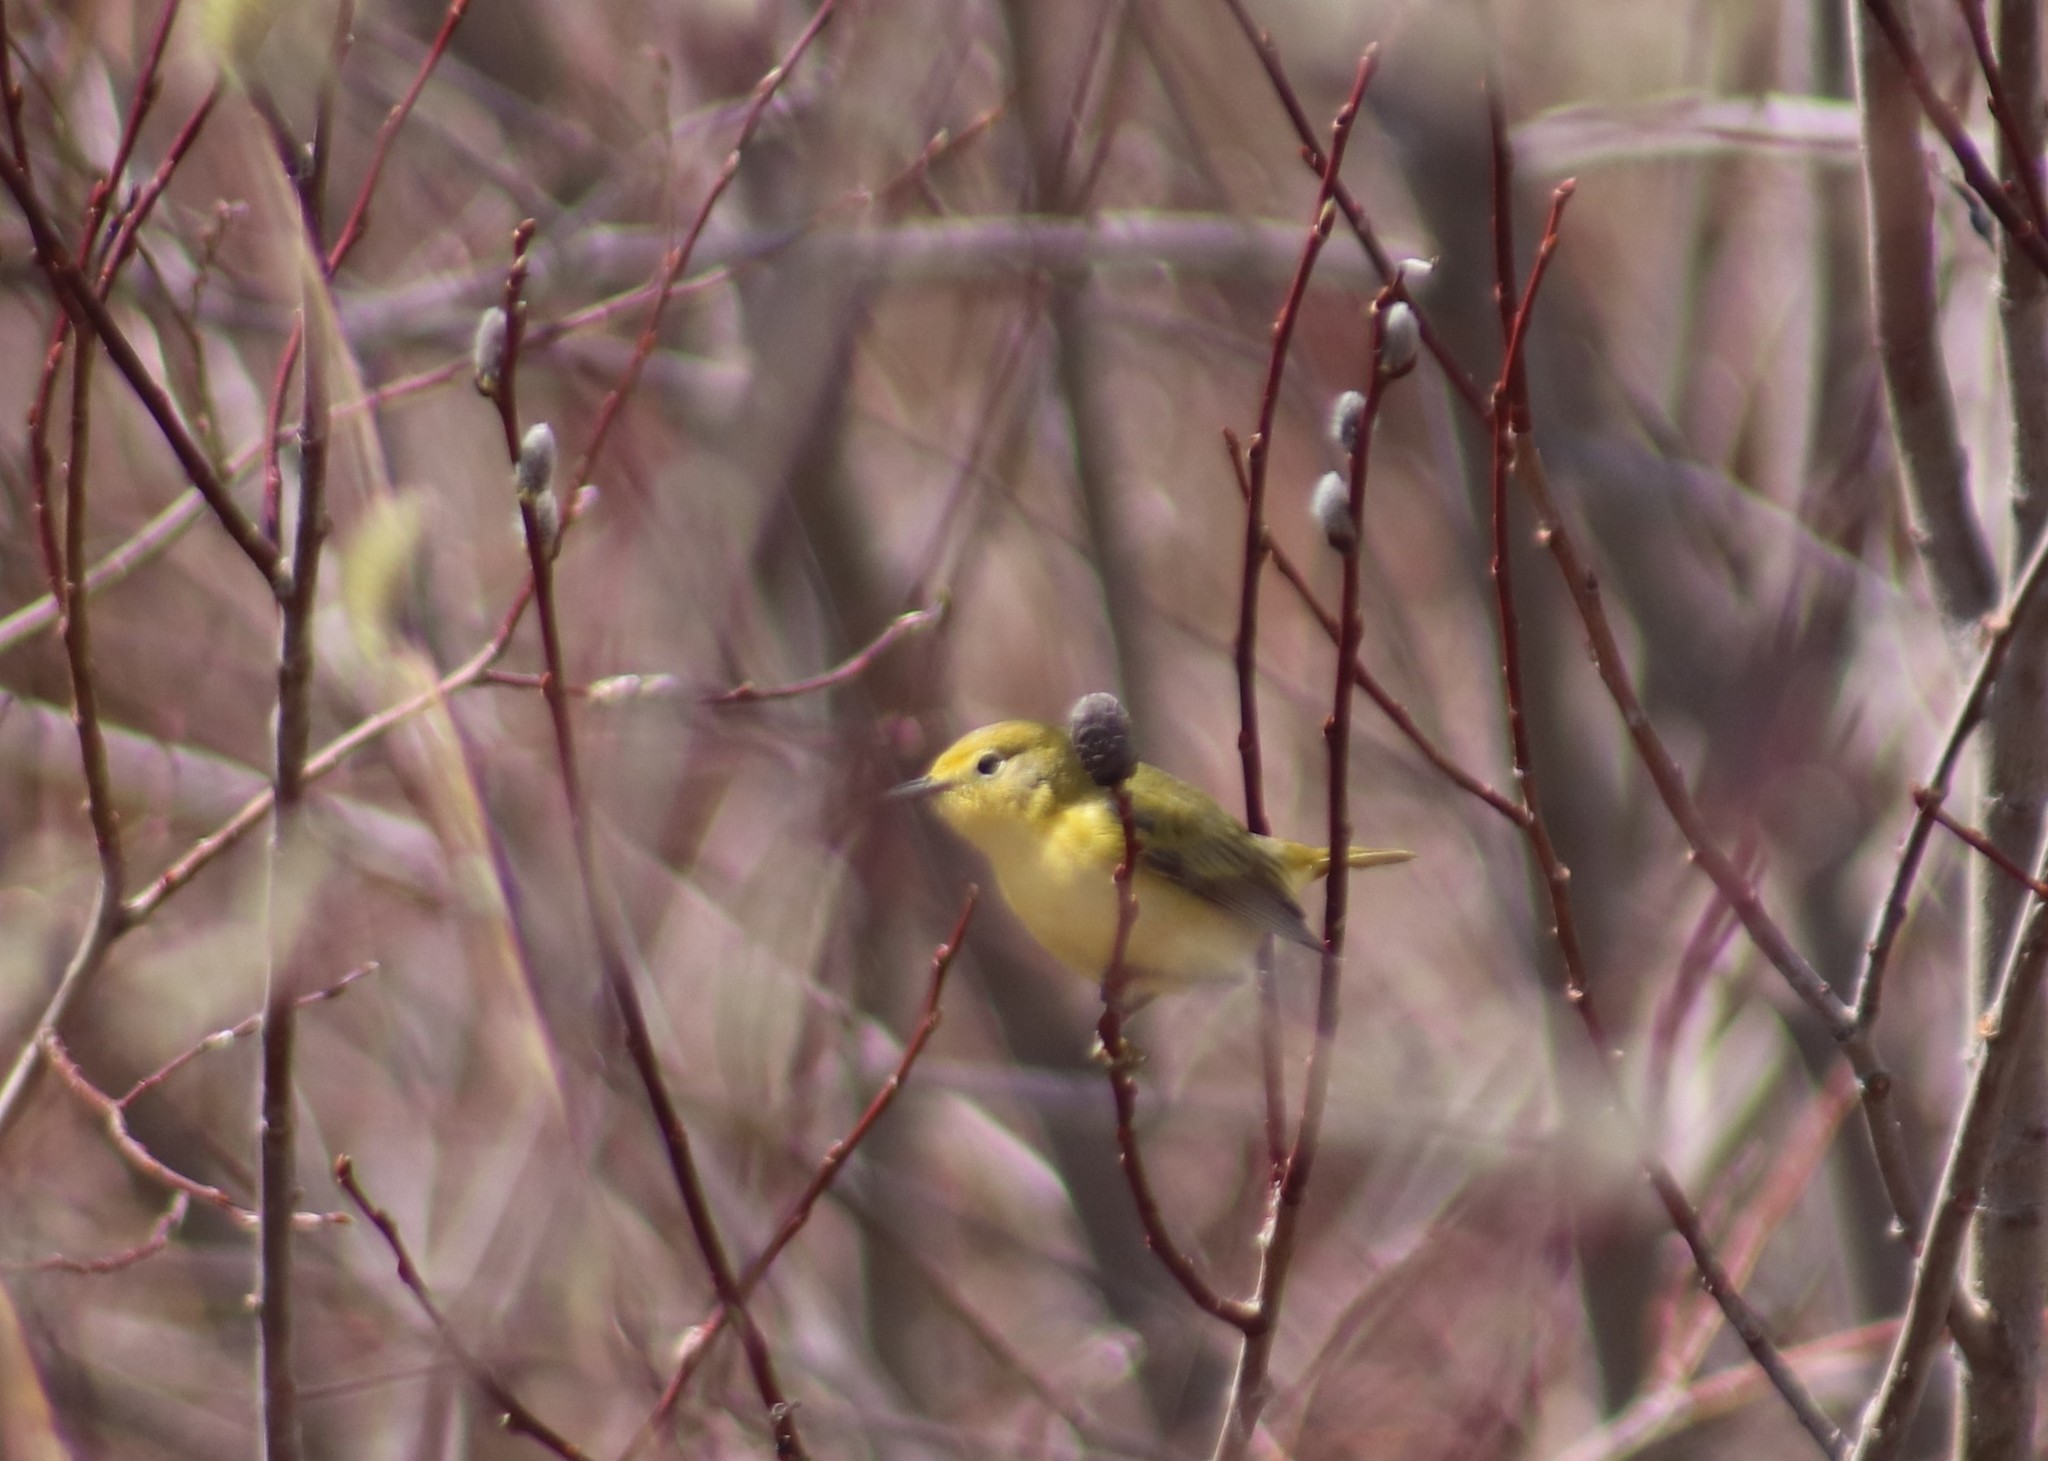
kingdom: Animalia
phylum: Chordata
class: Aves
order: Passeriformes
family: Parulidae
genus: Setophaga
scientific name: Setophaga petechia
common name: Yellow warbler
